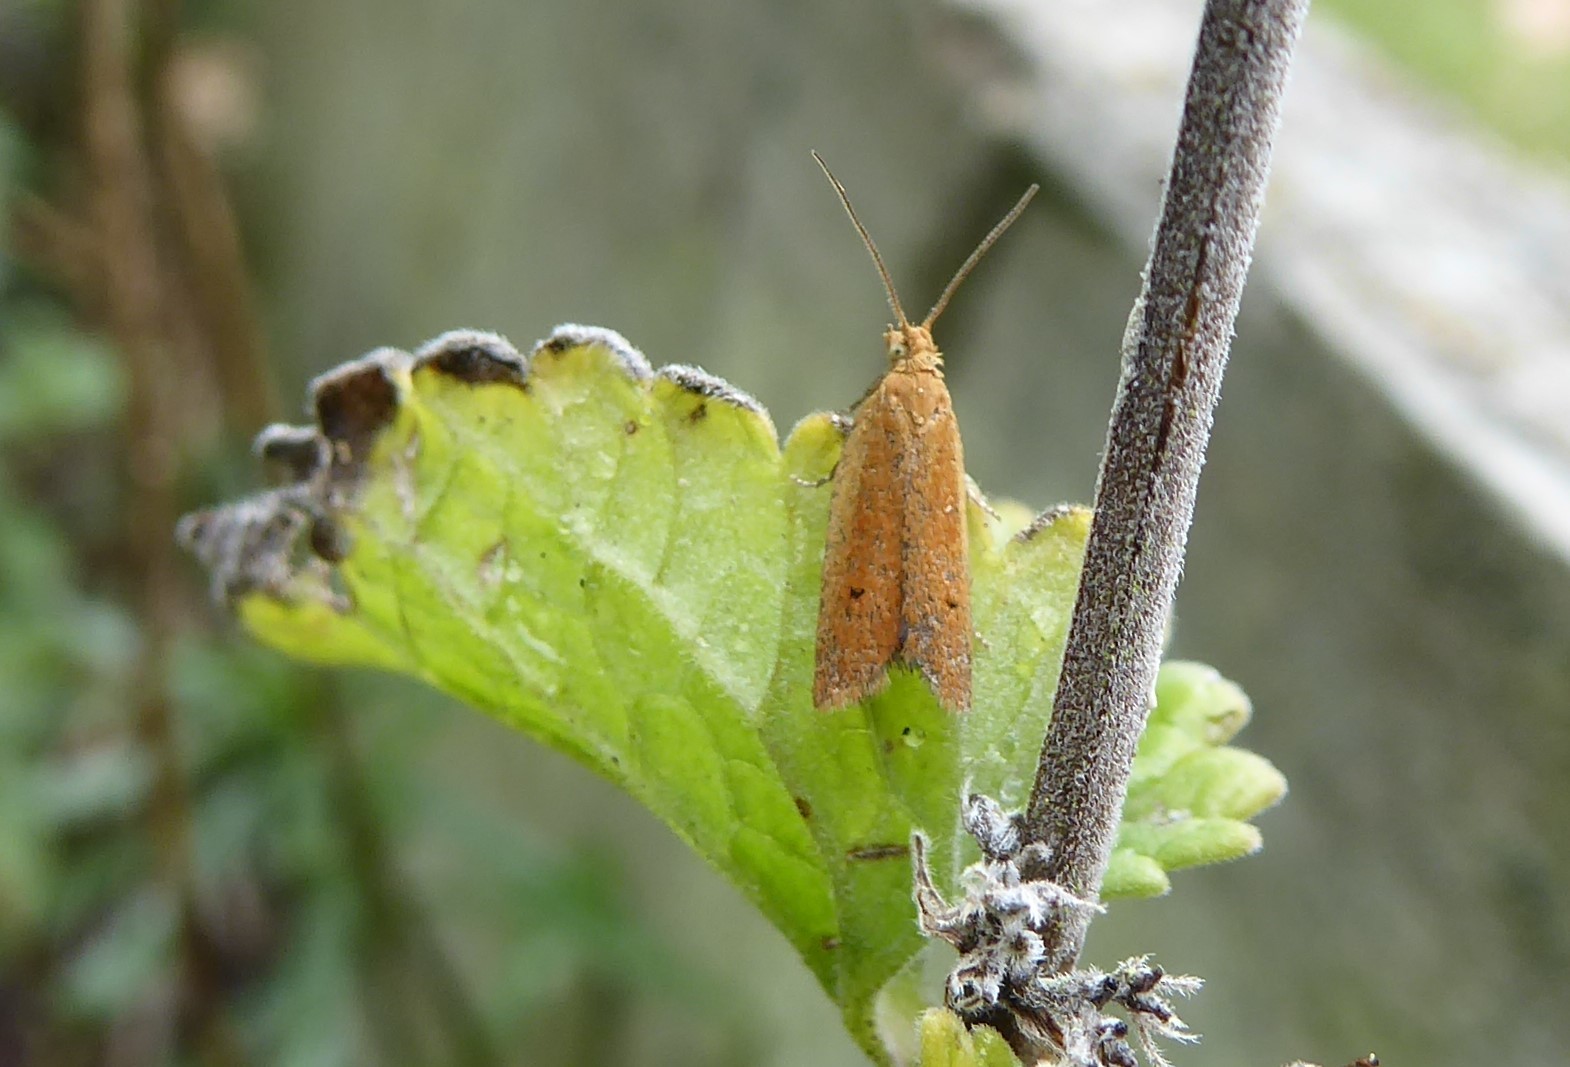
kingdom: Animalia
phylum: Arthropoda
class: Insecta
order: Lepidoptera
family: Tortricidae
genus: Epichorista
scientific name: Epichorista siriana
